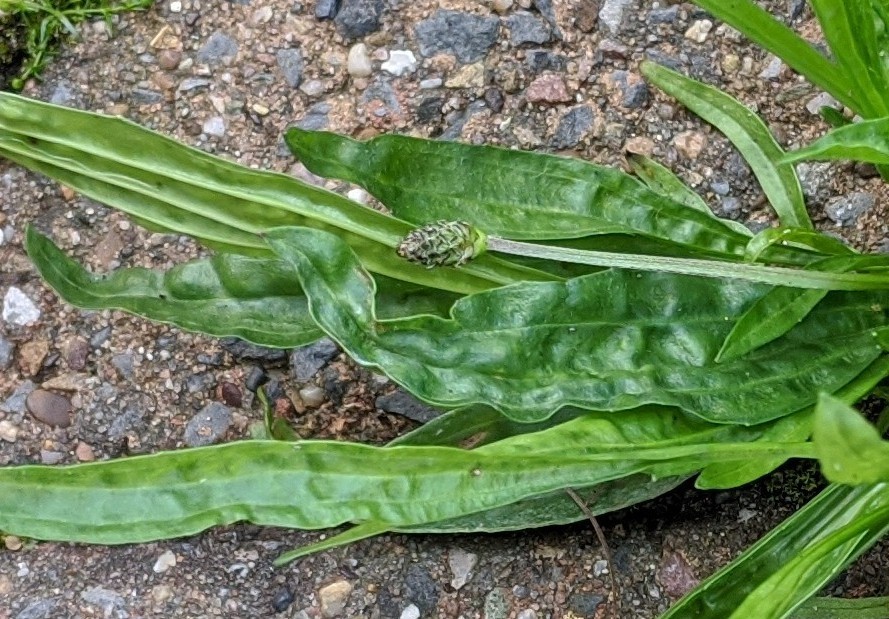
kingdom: Plantae
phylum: Tracheophyta
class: Magnoliopsida
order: Lamiales
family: Plantaginaceae
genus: Plantago
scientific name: Plantago lanceolata
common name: Ribwort plantain
